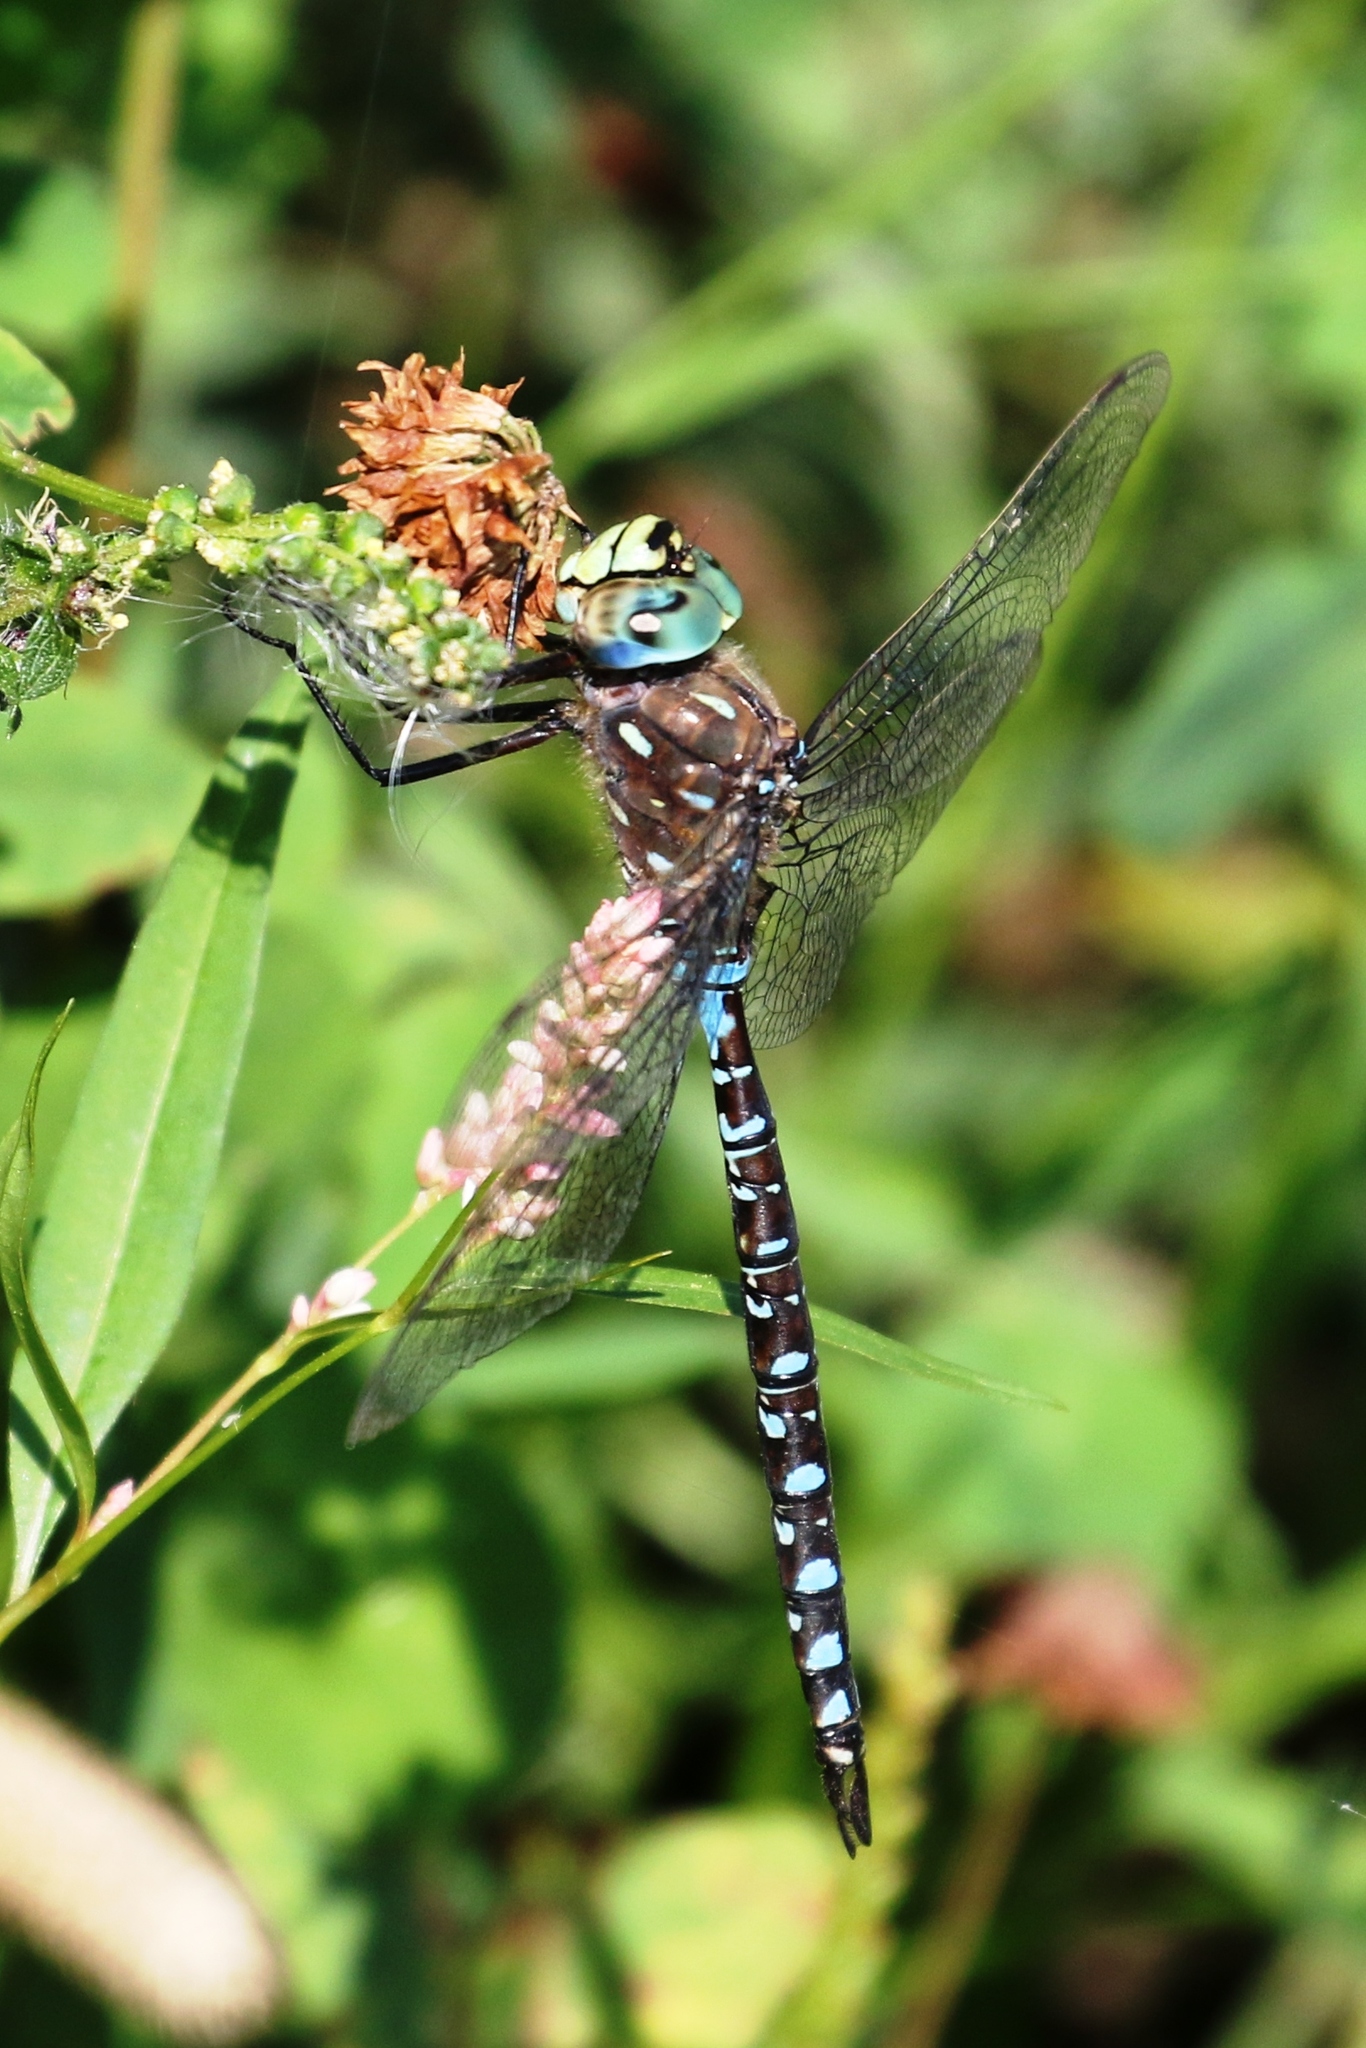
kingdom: Animalia
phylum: Arthropoda
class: Insecta
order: Odonata
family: Aeshnidae
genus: Aeshna
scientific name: Aeshna interrupta
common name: Variable darner
